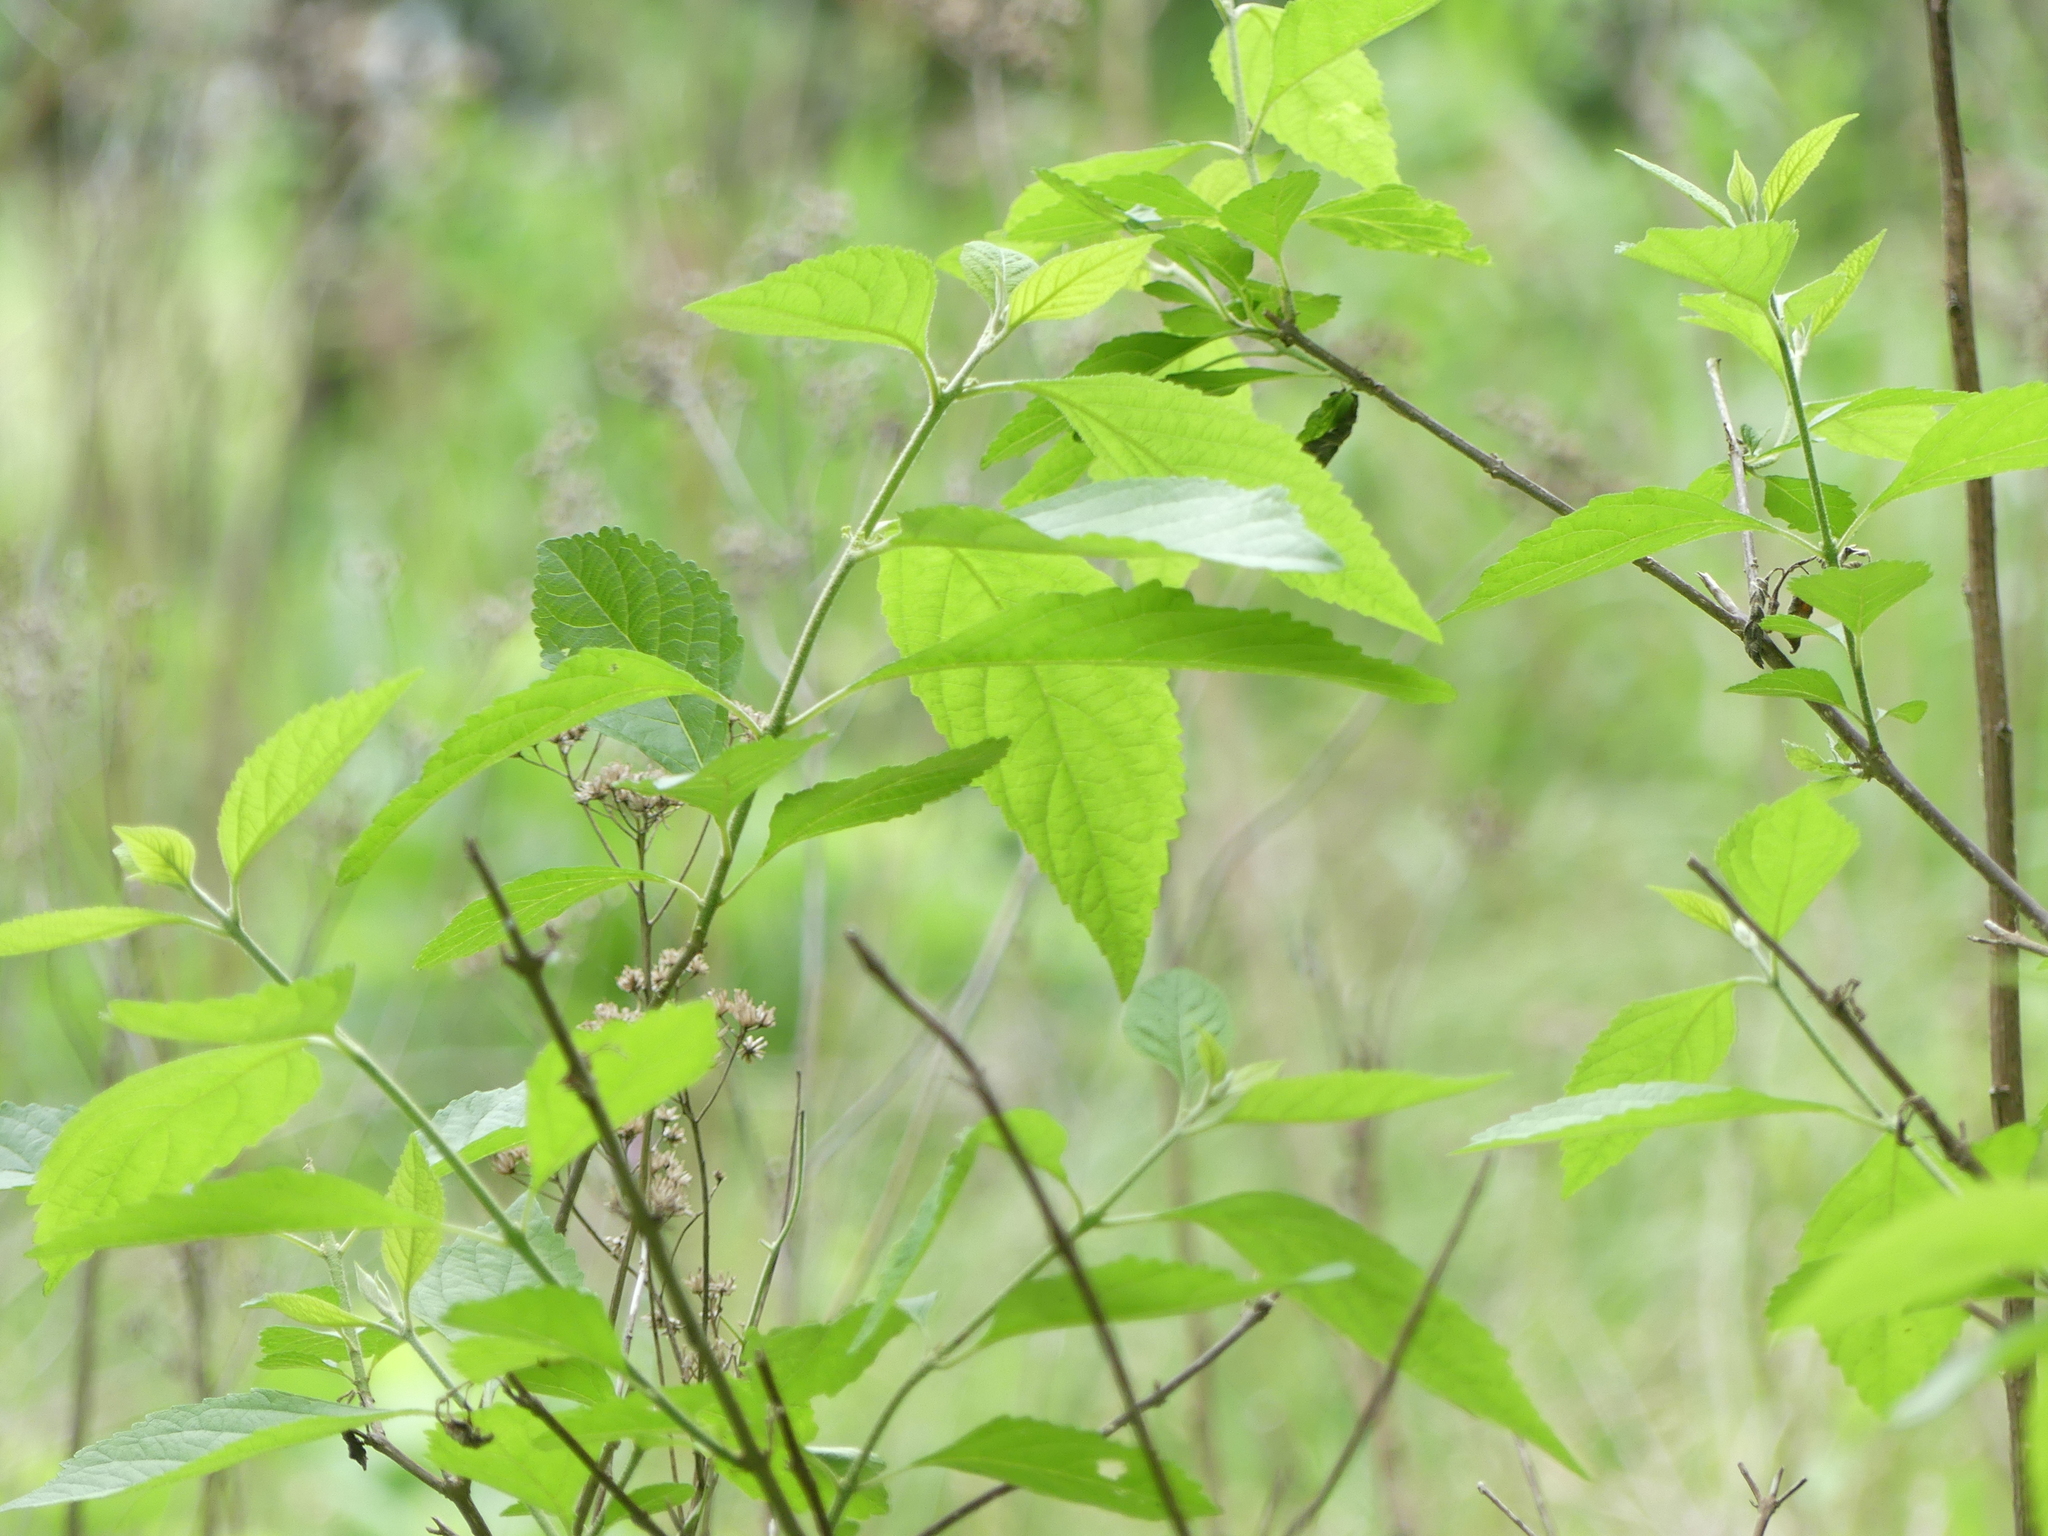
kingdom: Plantae
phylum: Tracheophyta
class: Magnoliopsida
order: Lamiales
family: Lamiaceae
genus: Callicarpa
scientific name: Callicarpa americana
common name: American beautyberry
